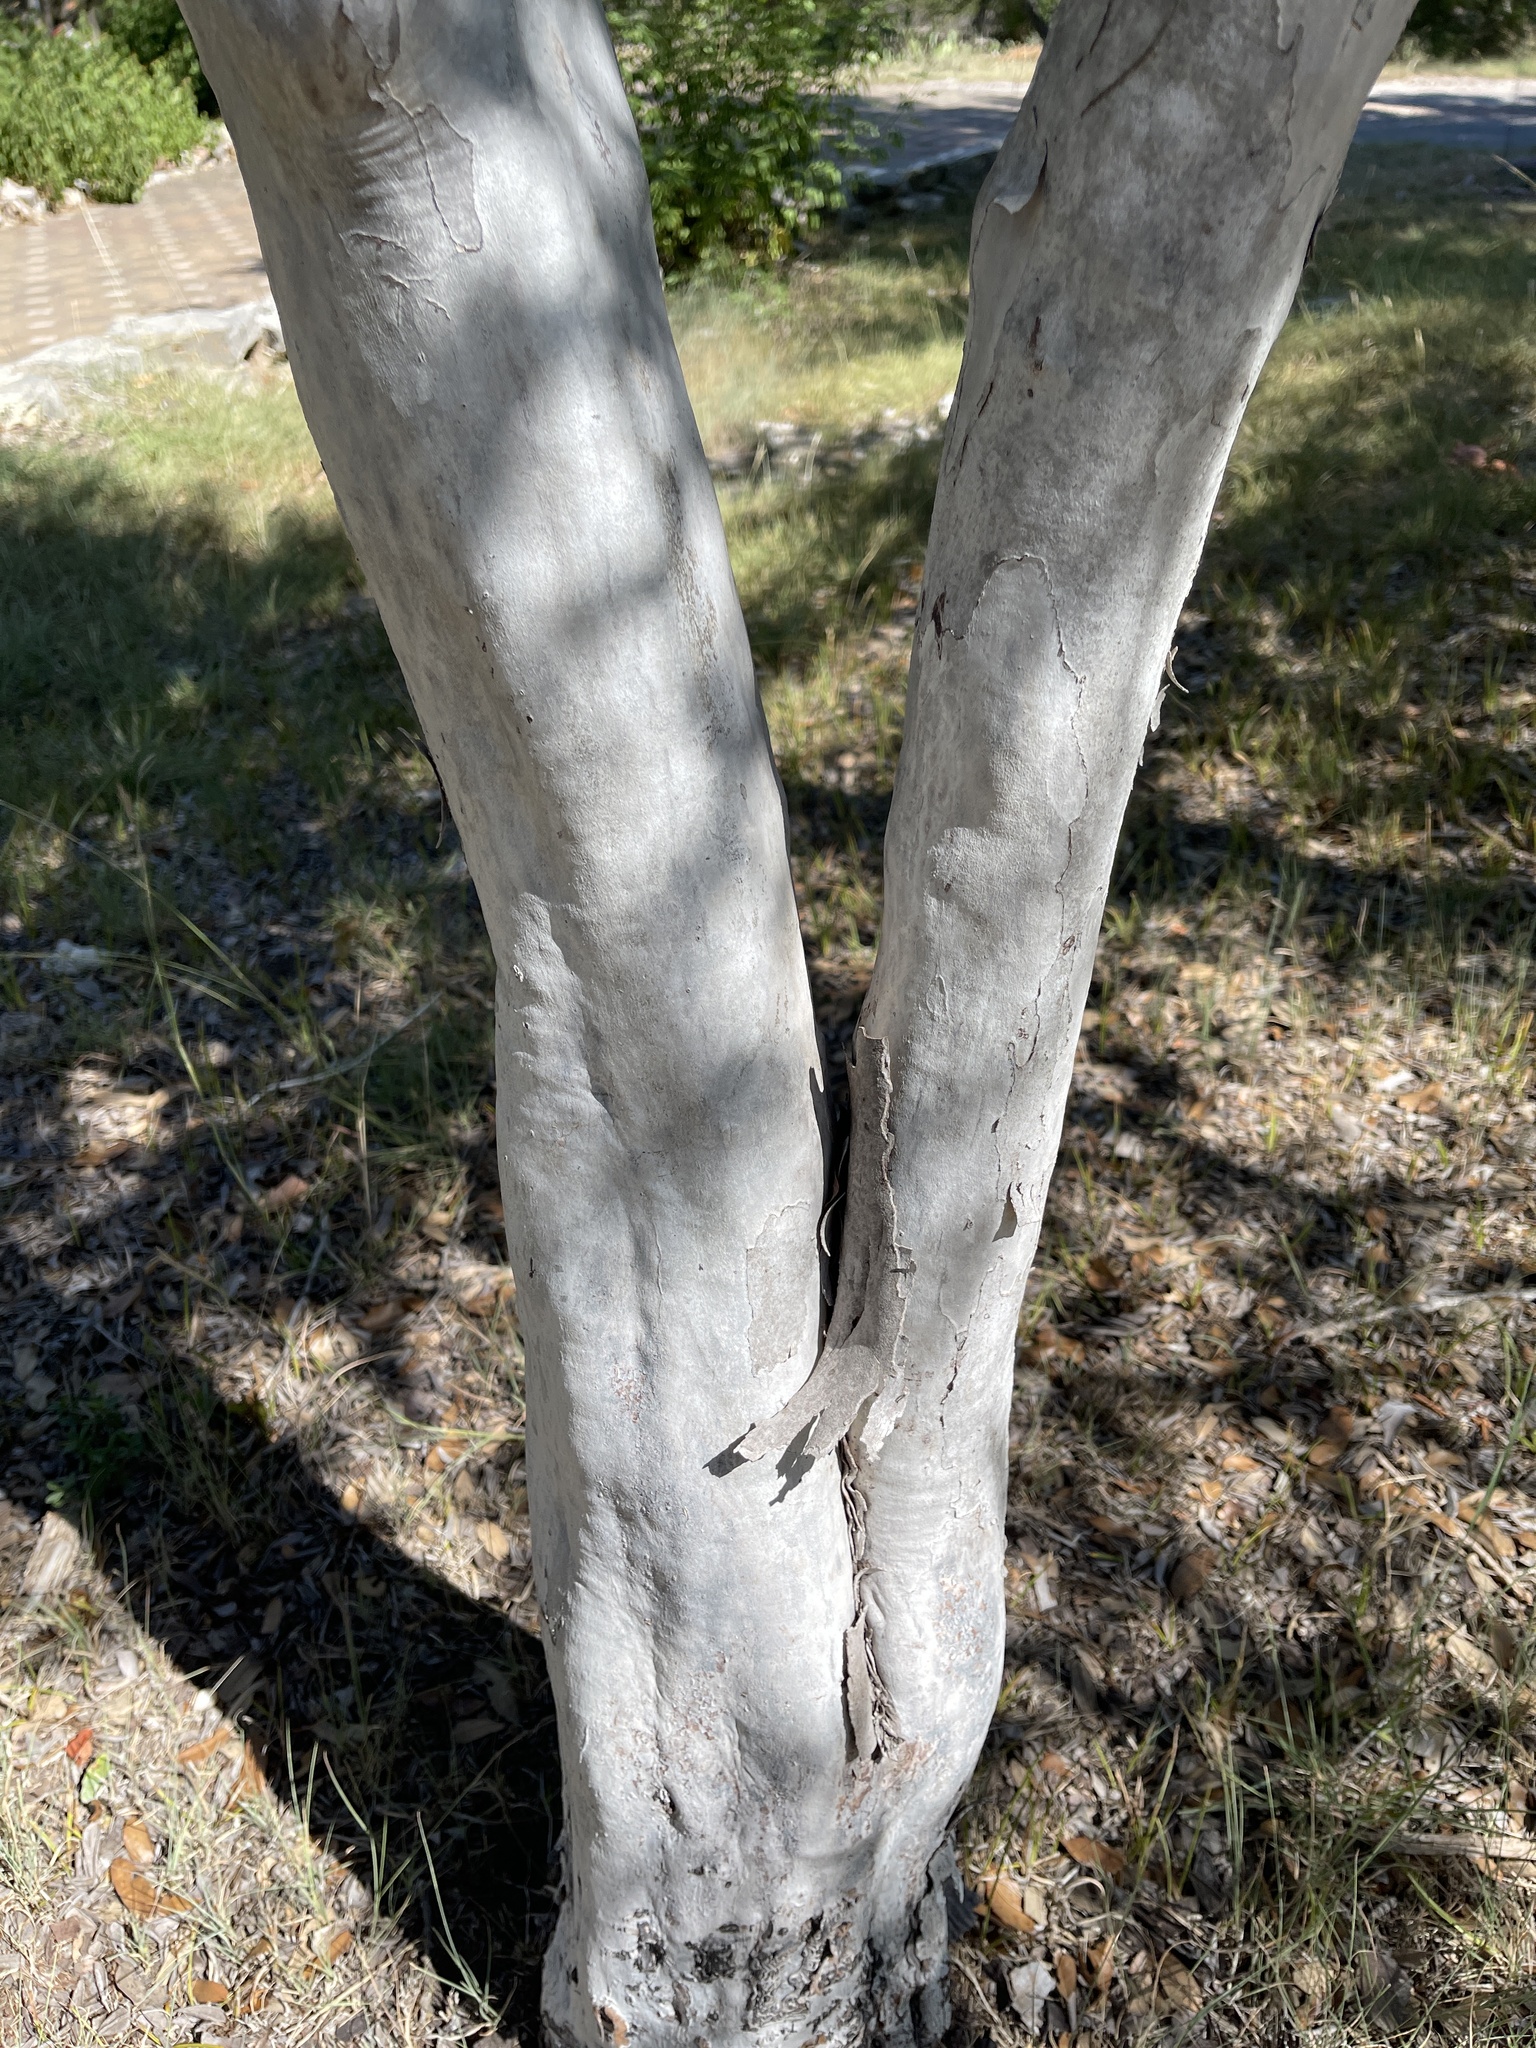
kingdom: Plantae
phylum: Tracheophyta
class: Magnoliopsida
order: Ericales
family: Ebenaceae
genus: Diospyros
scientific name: Diospyros texana
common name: Texas persimmon
